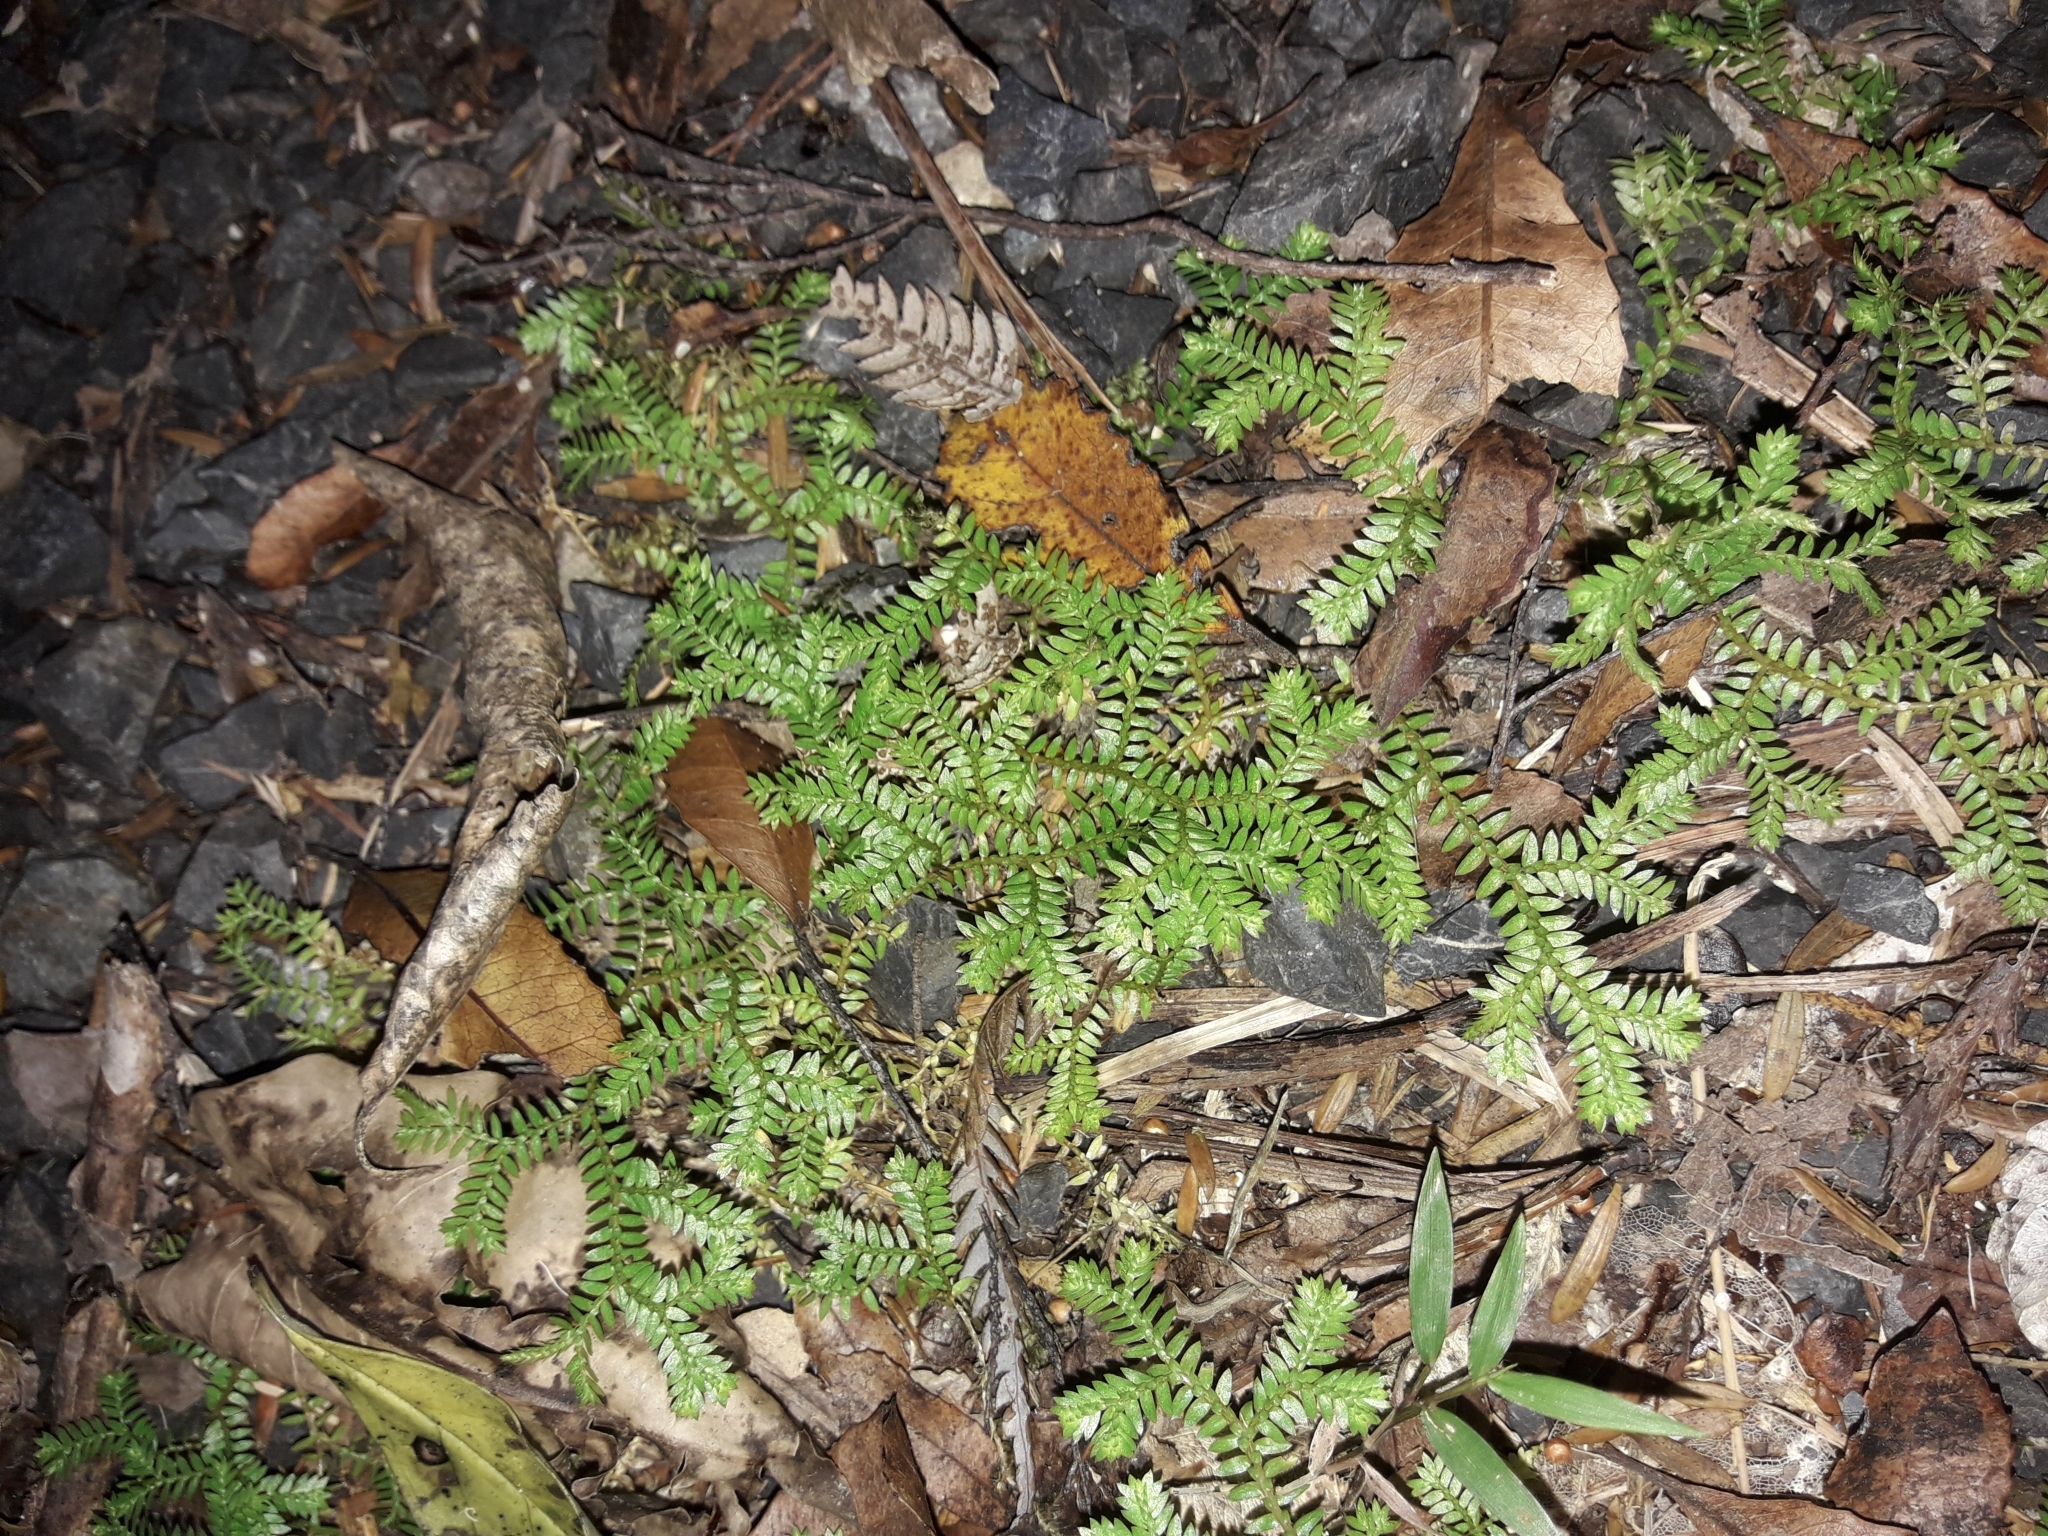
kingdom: Plantae
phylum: Tracheophyta
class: Lycopodiopsida
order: Selaginellales
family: Selaginellaceae
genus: Selaginella
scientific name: Selaginella kraussiana
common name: Krauss' spikemoss
